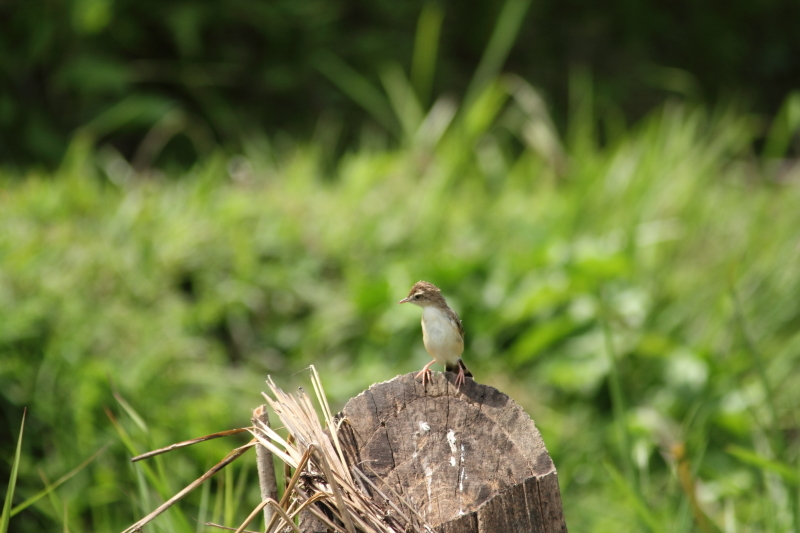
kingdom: Animalia
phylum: Chordata
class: Aves
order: Passeriformes
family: Cisticolidae
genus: Cisticola
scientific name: Cisticola juncidis
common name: Zitting cisticola
